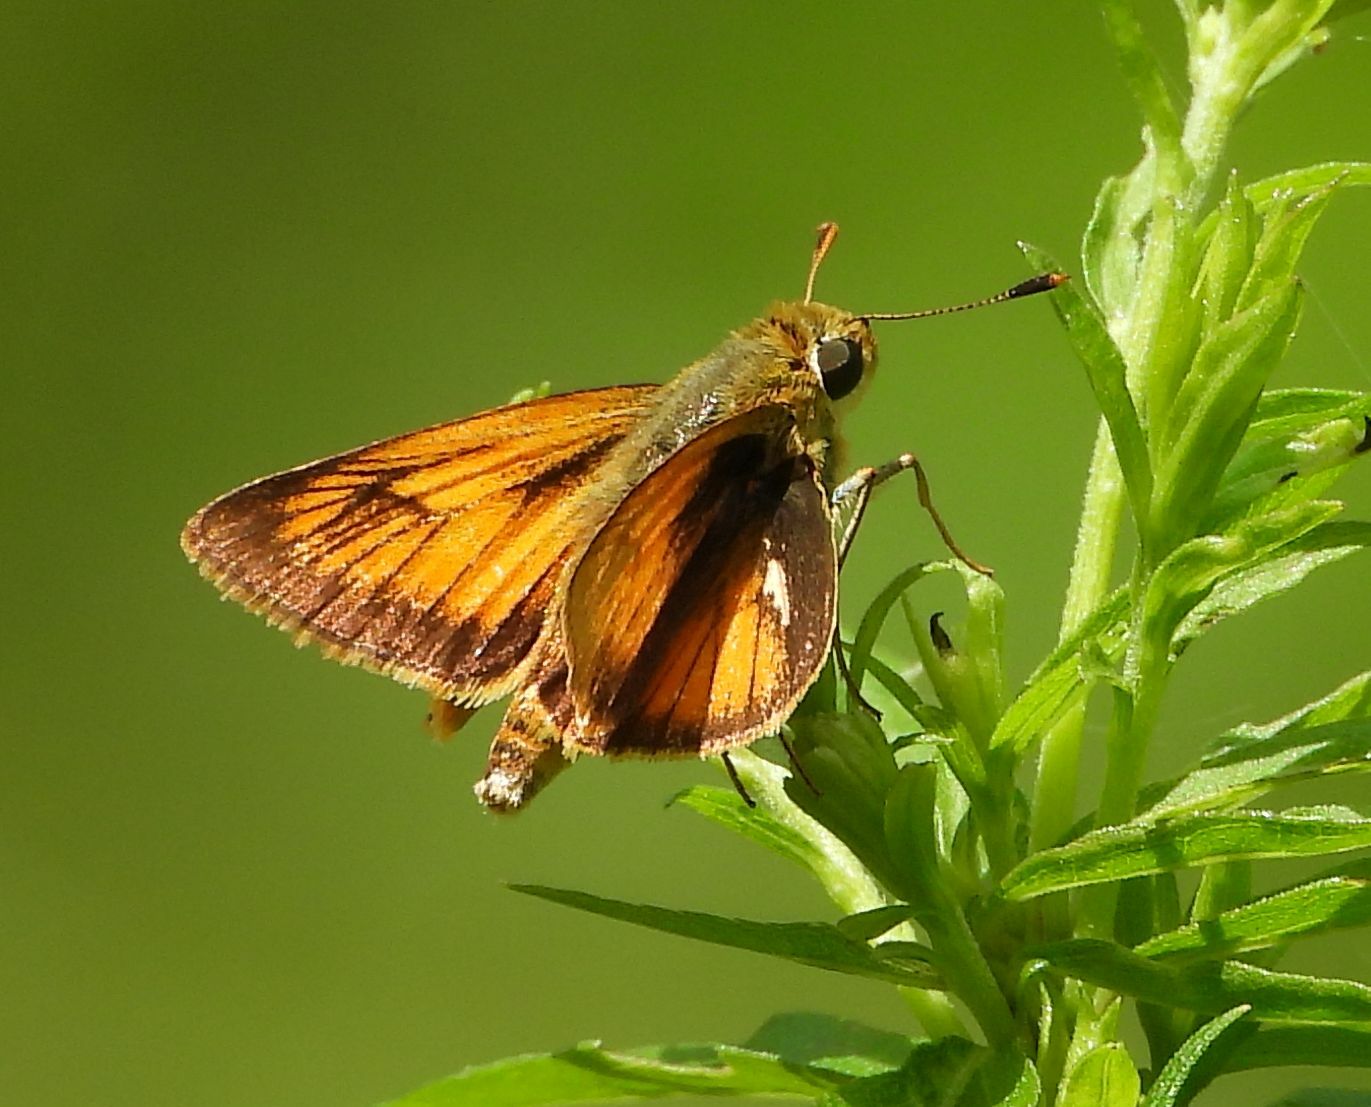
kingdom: Animalia
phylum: Arthropoda
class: Insecta
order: Lepidoptera
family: Hesperiidae
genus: Atrytone
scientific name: Atrytone delaware
